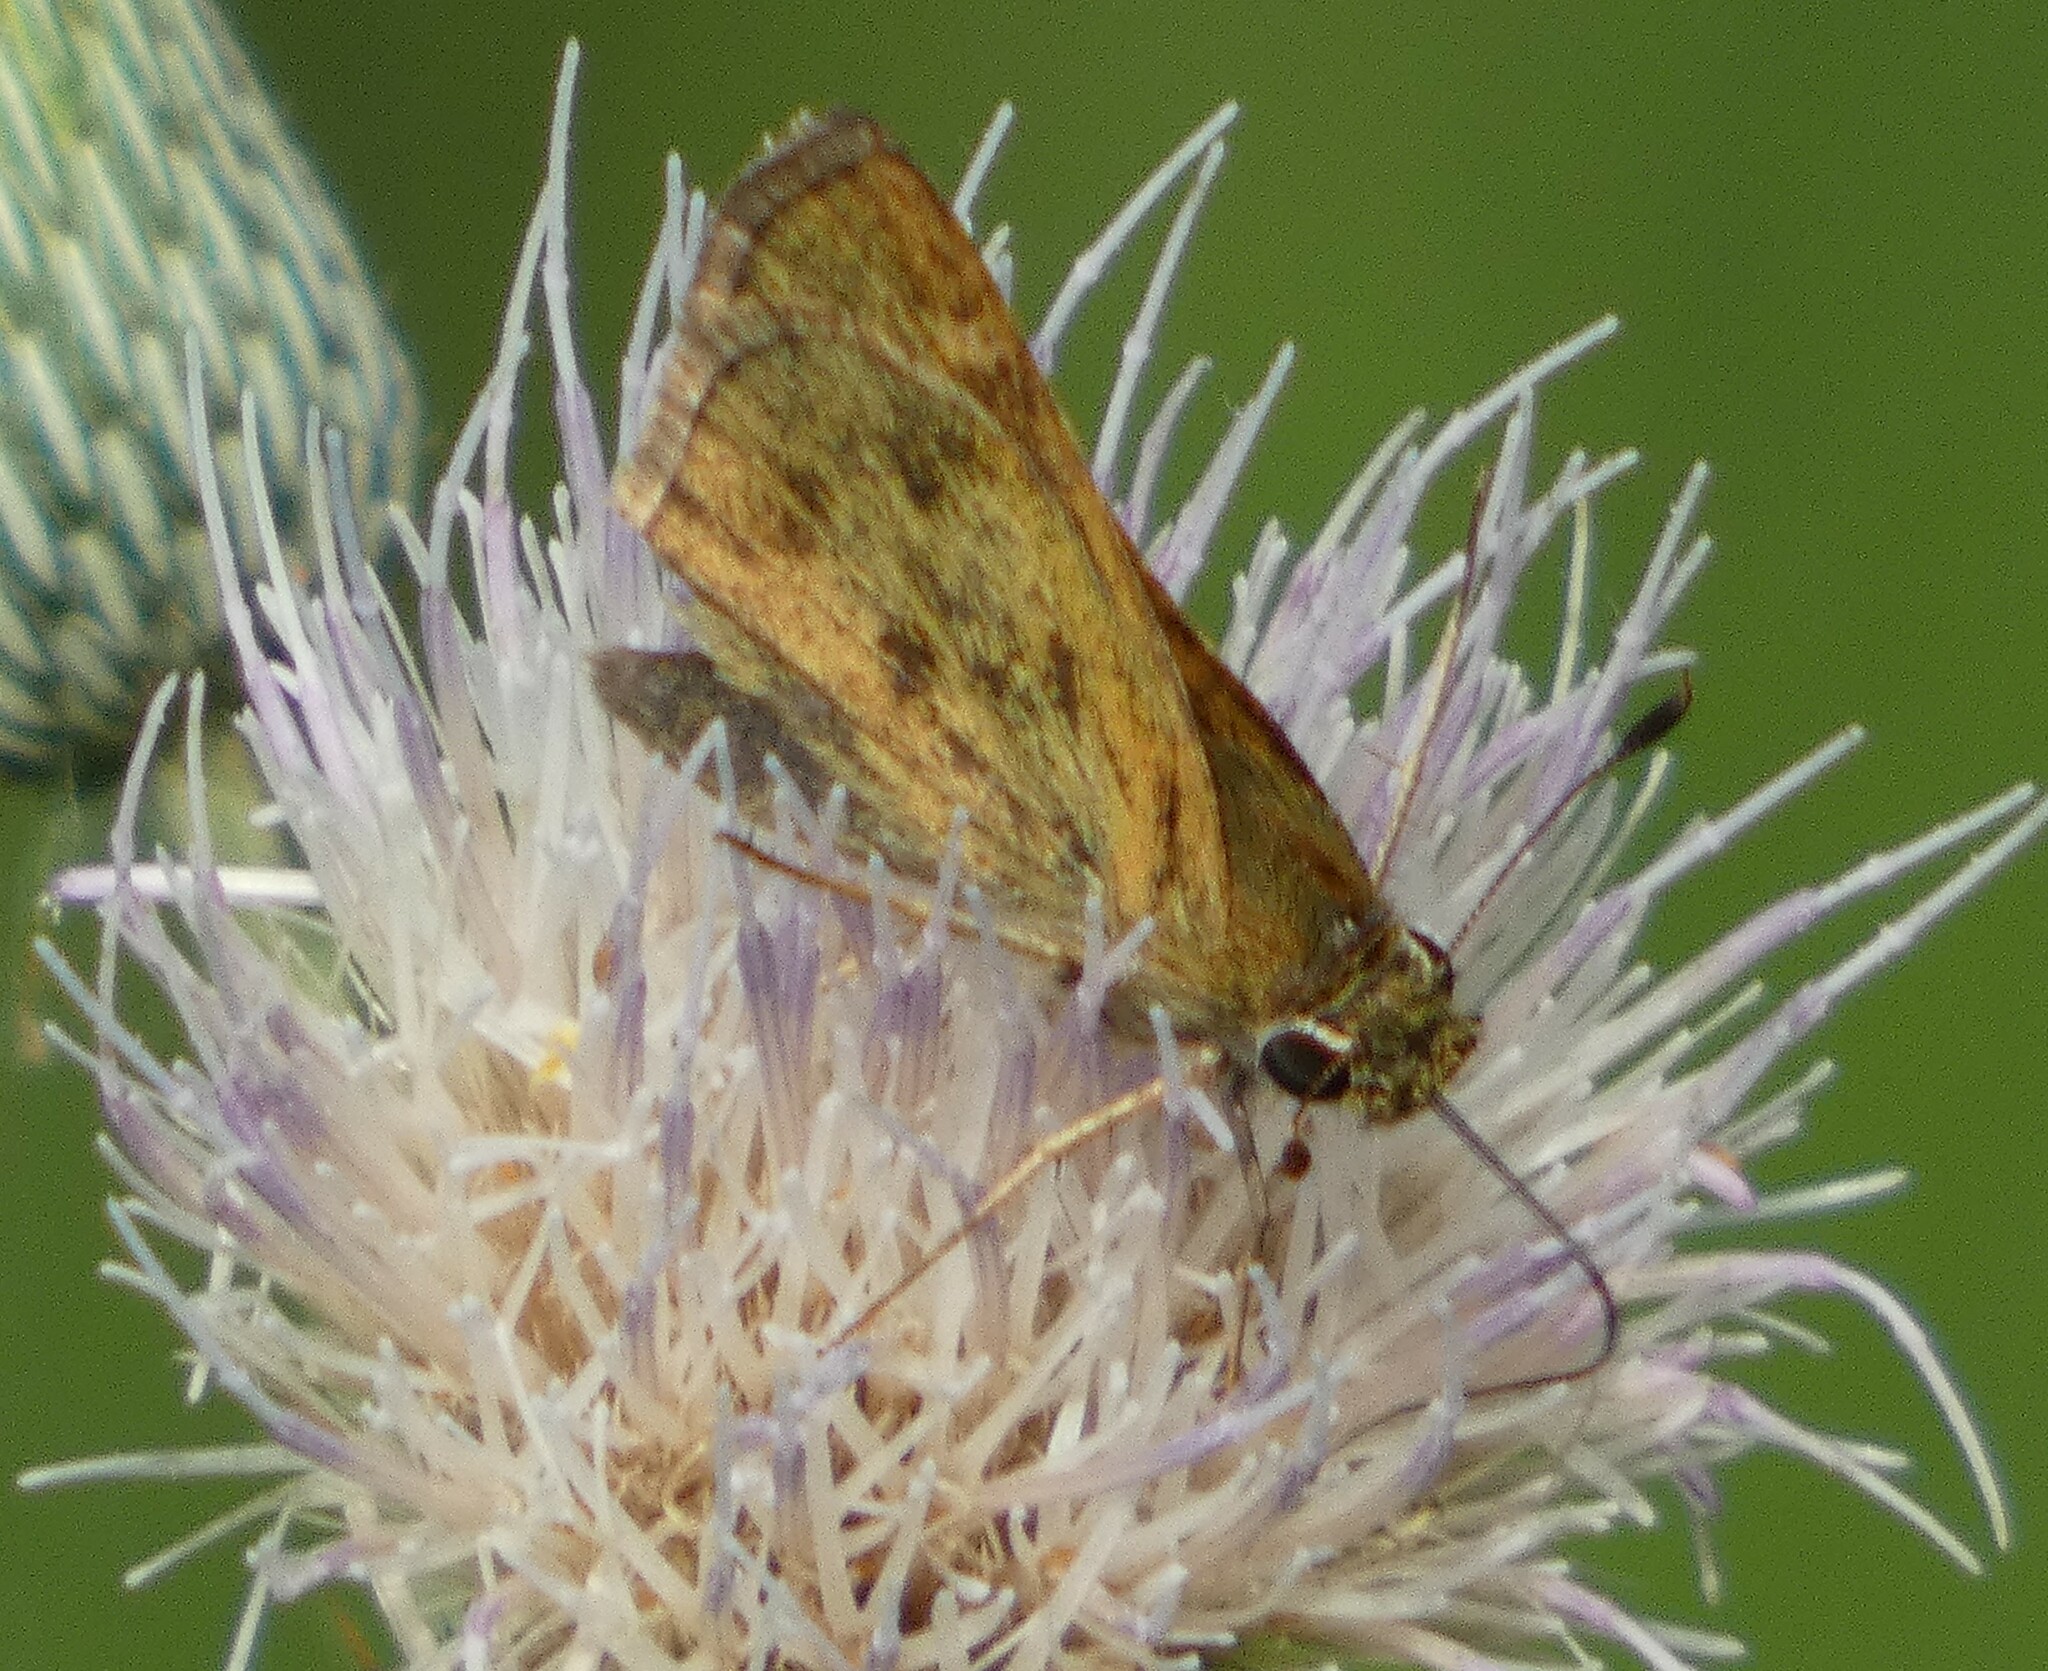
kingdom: Animalia
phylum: Arthropoda
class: Insecta
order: Lepidoptera
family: Hesperiidae
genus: Polites
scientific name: Polites vibex
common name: Whirlabout
